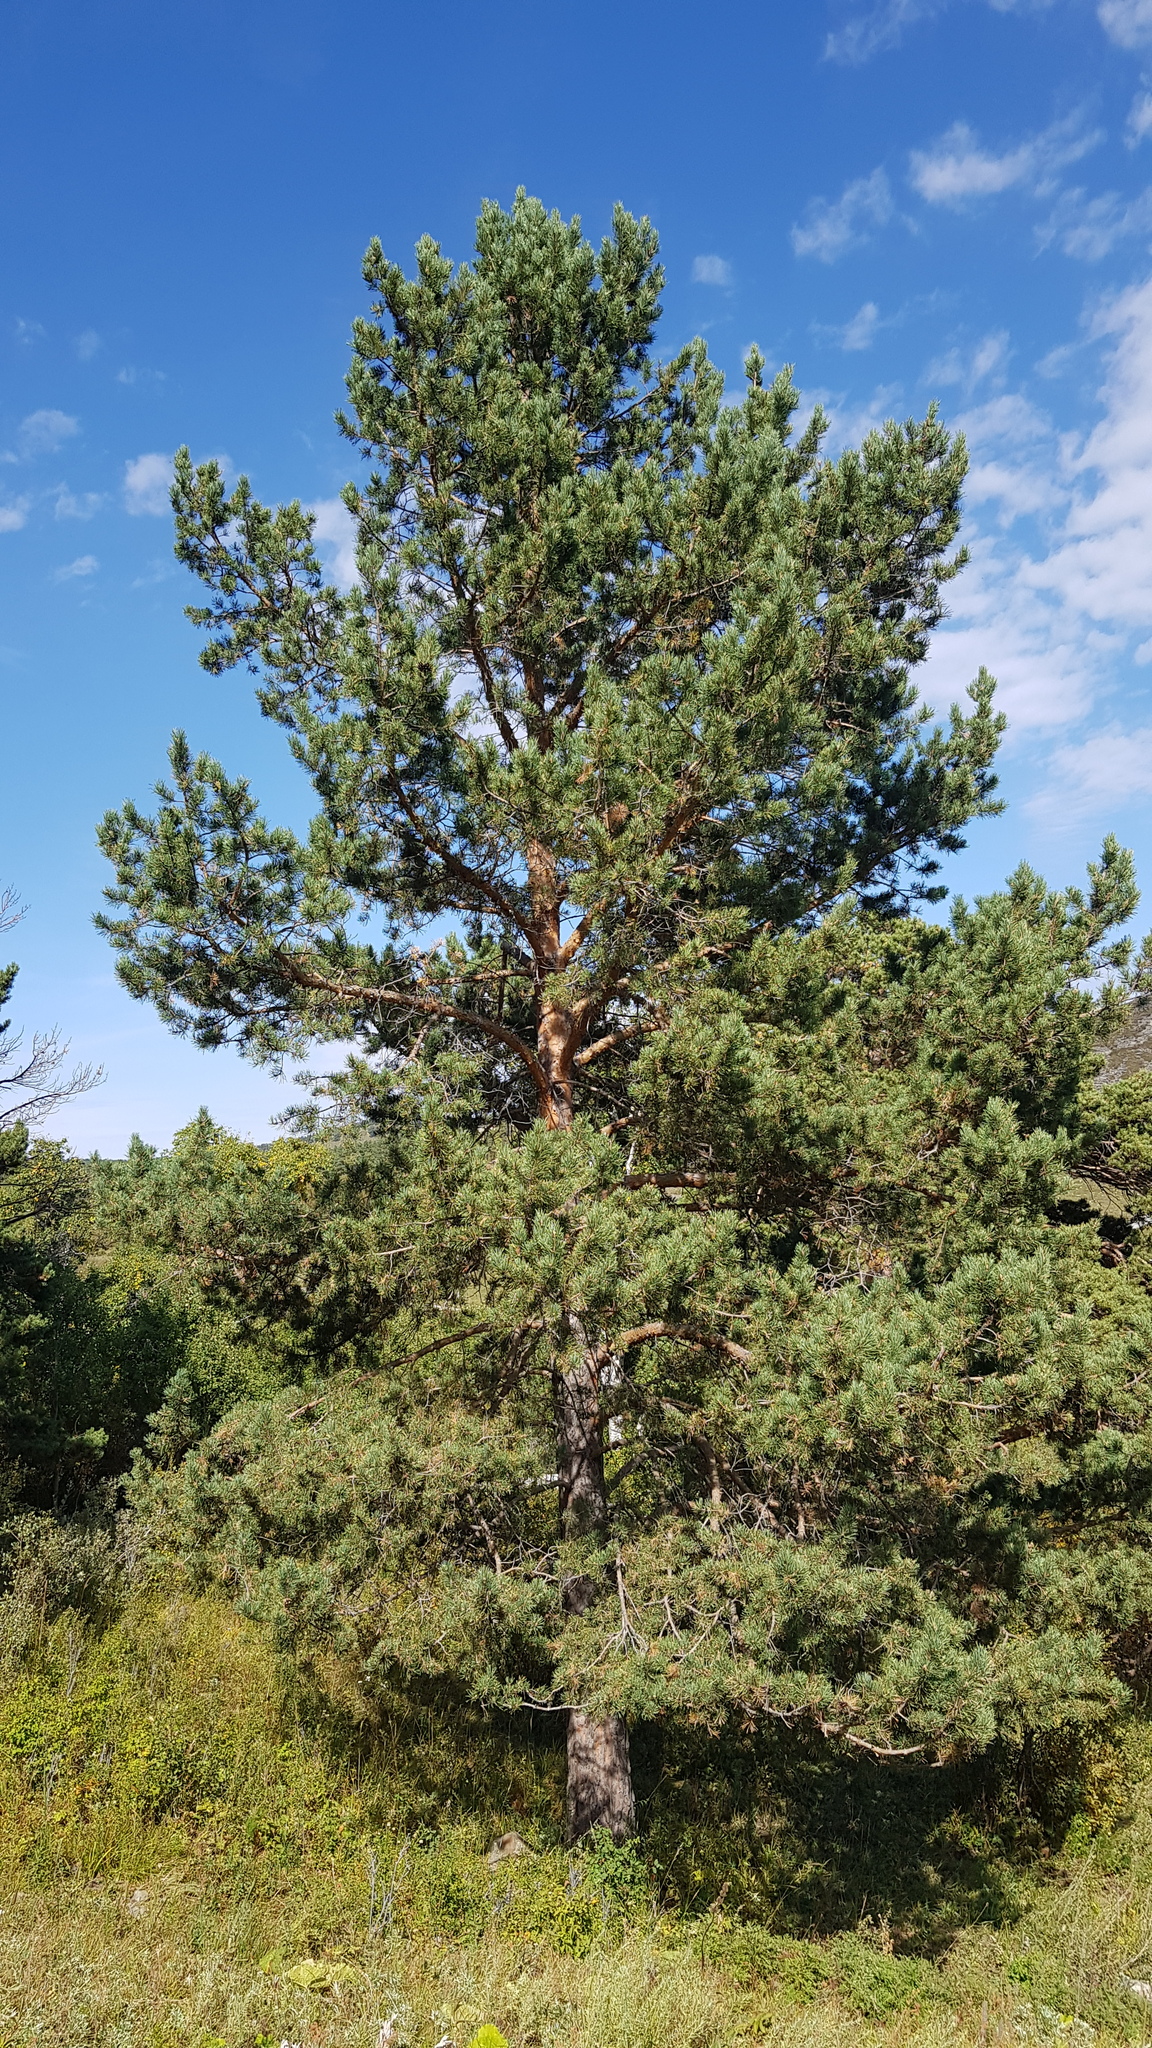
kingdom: Plantae
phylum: Tracheophyta
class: Pinopsida
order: Pinales
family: Pinaceae
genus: Pinus
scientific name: Pinus sylvestris
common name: Scots pine
